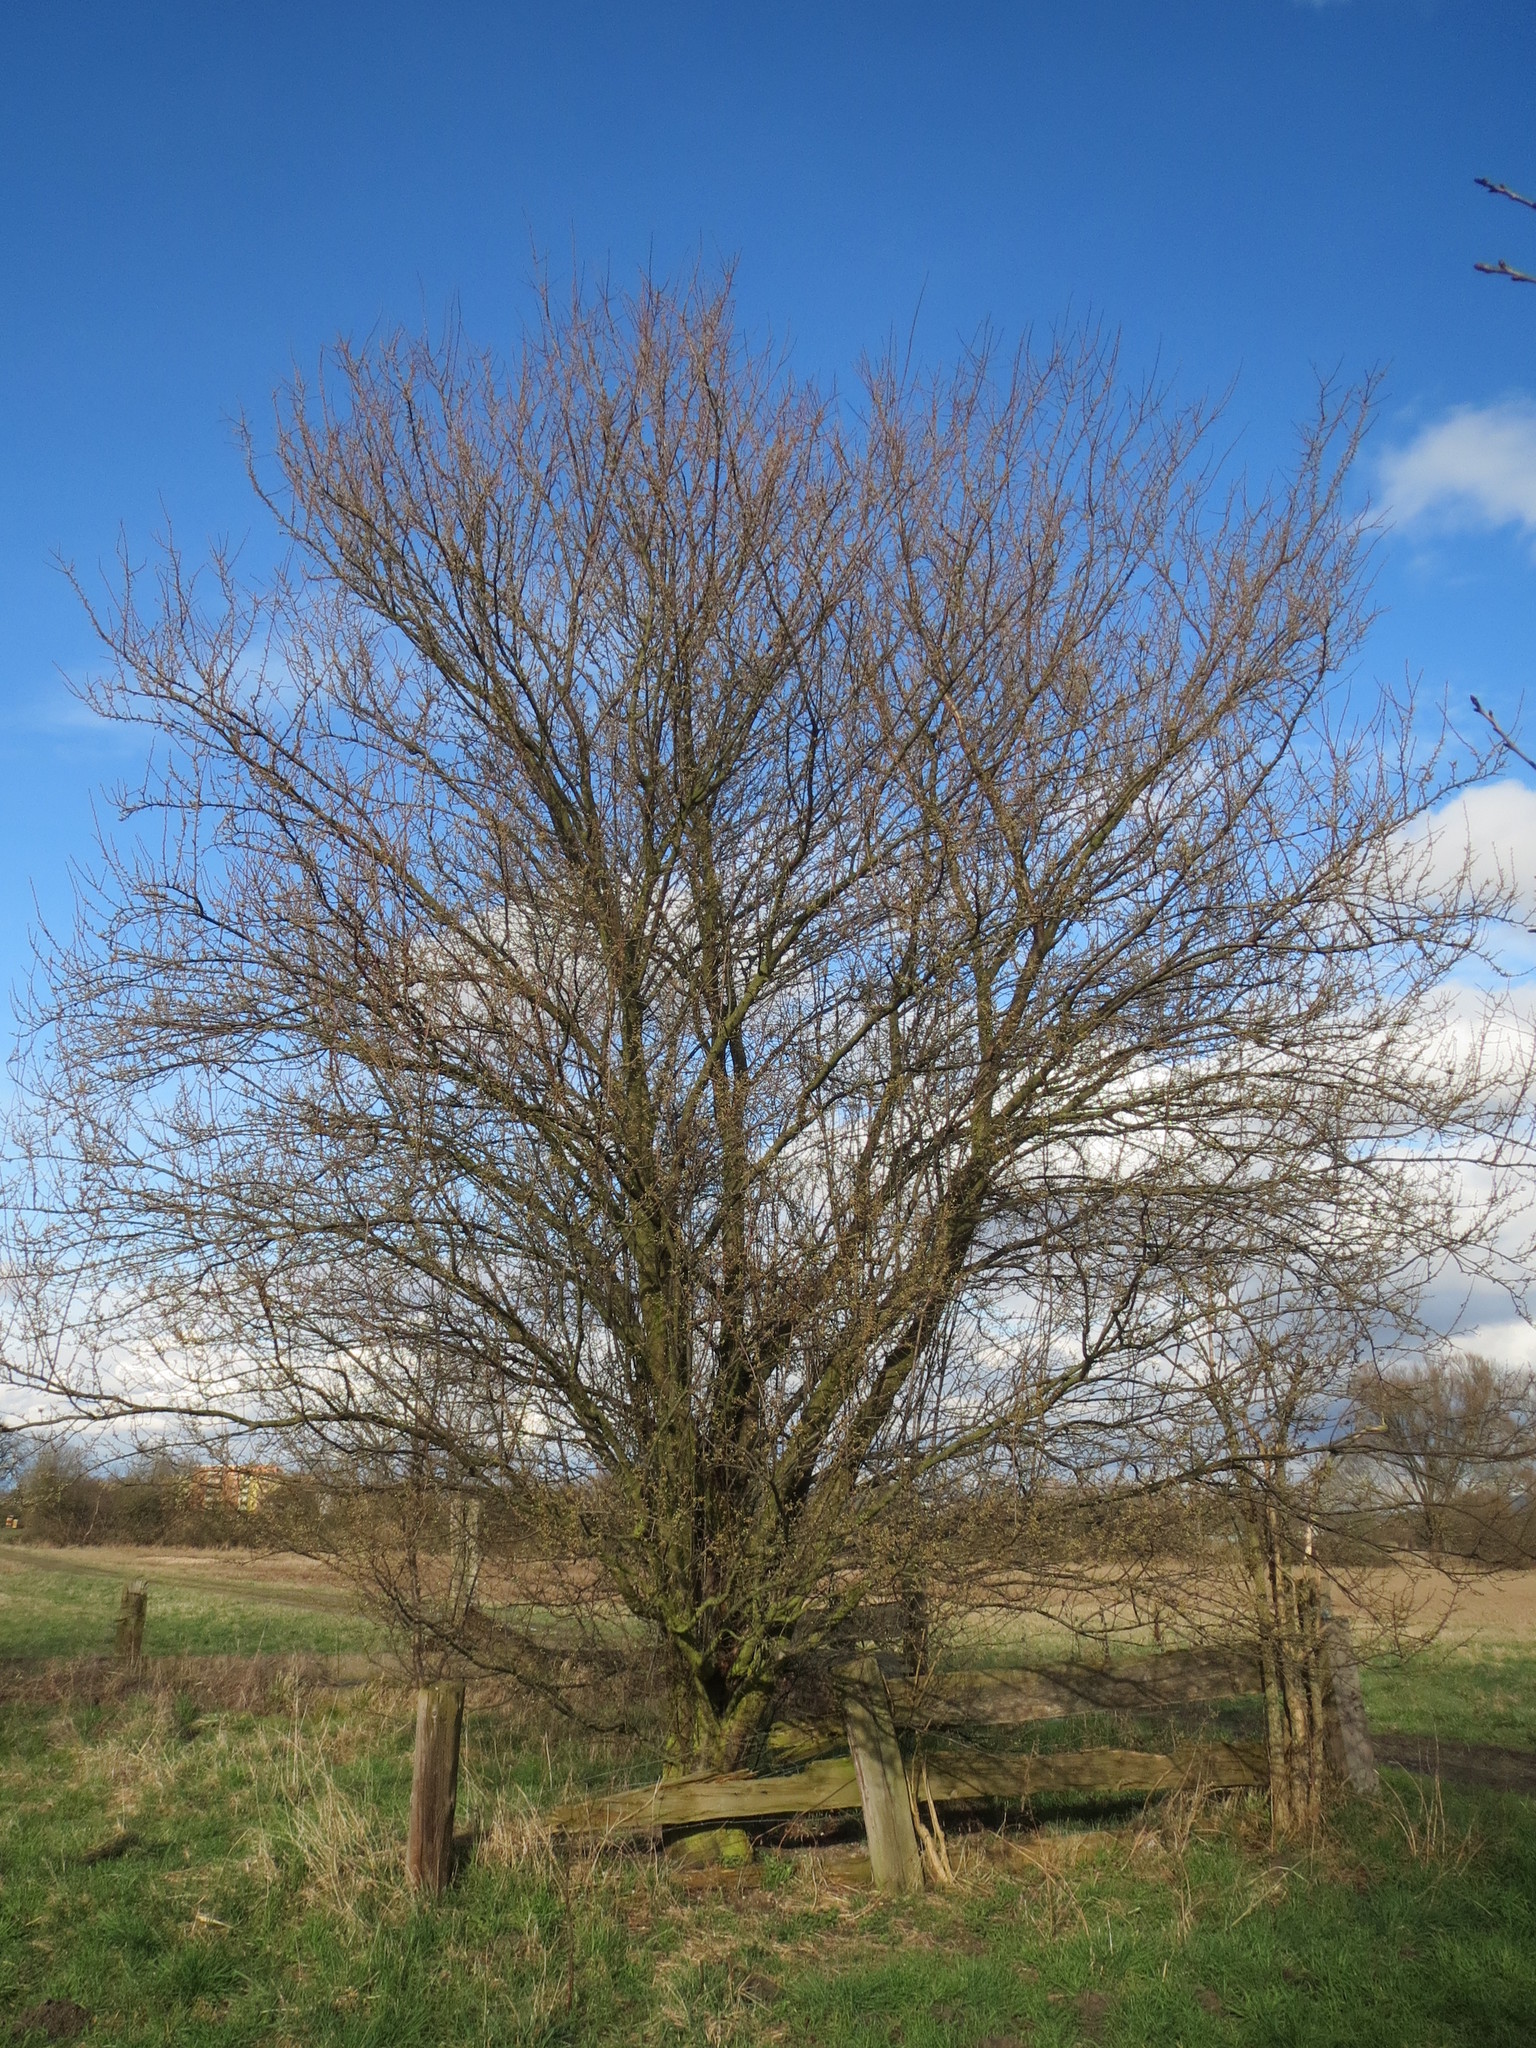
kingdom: Plantae
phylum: Tracheophyta
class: Magnoliopsida
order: Rosales
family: Rosaceae
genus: Prunus
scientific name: Prunus cerasifera
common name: Cherry plum
